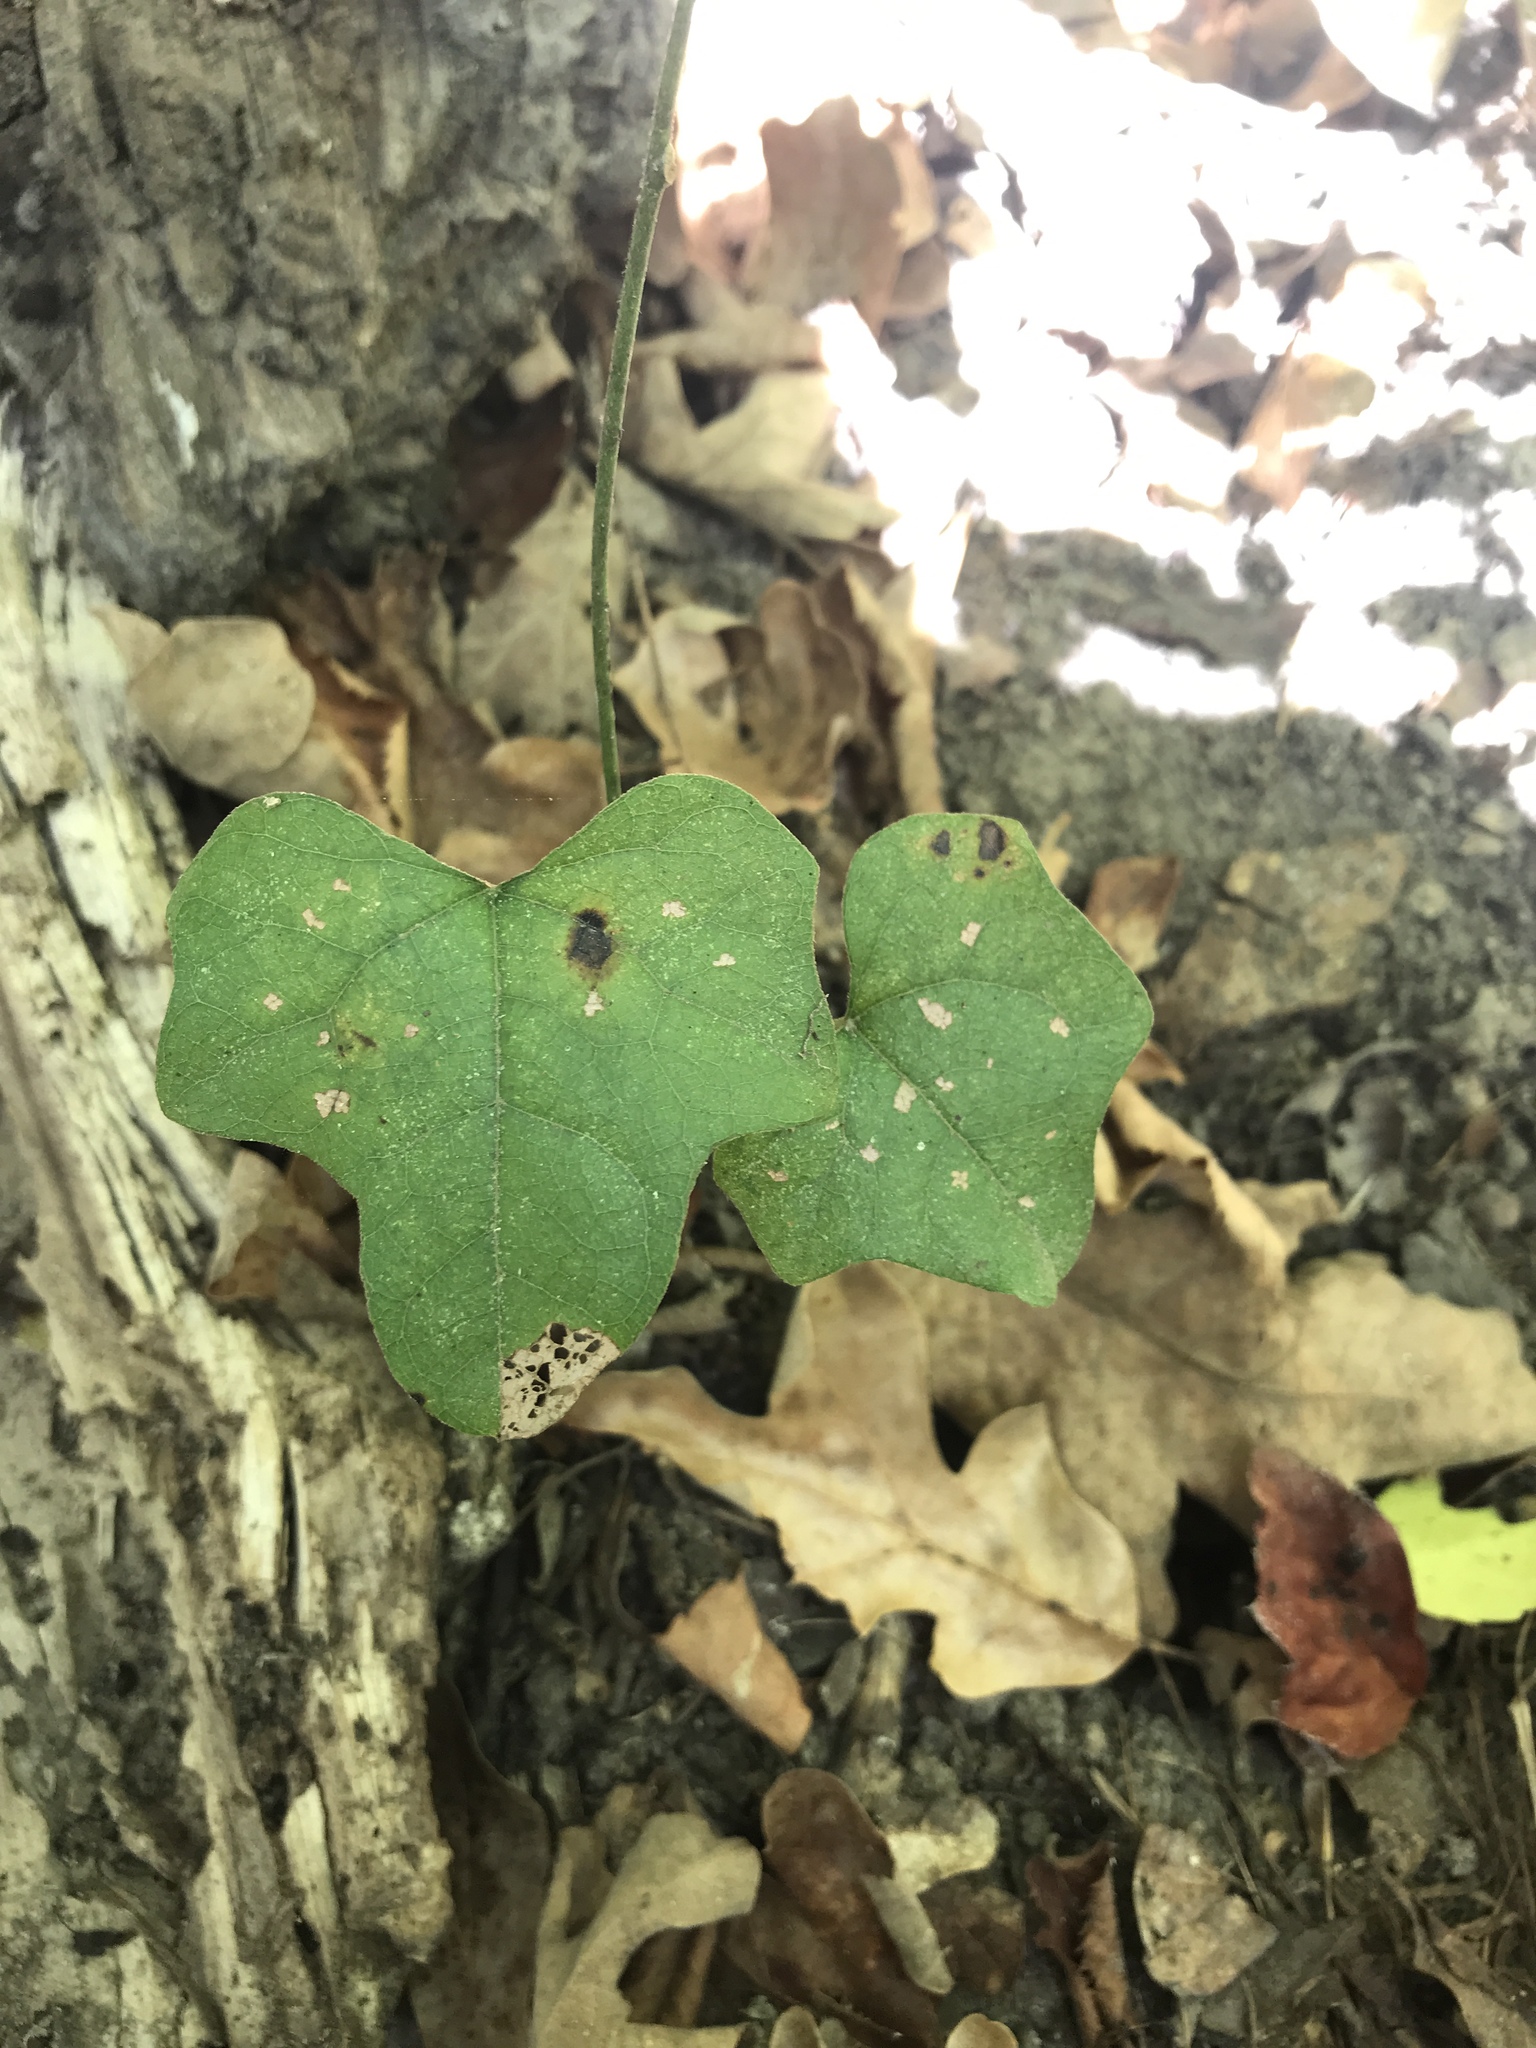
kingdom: Plantae
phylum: Tracheophyta
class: Magnoliopsida
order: Ranunculales
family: Menispermaceae
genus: Cocculus
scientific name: Cocculus carolinus
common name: Carolina moonseed
